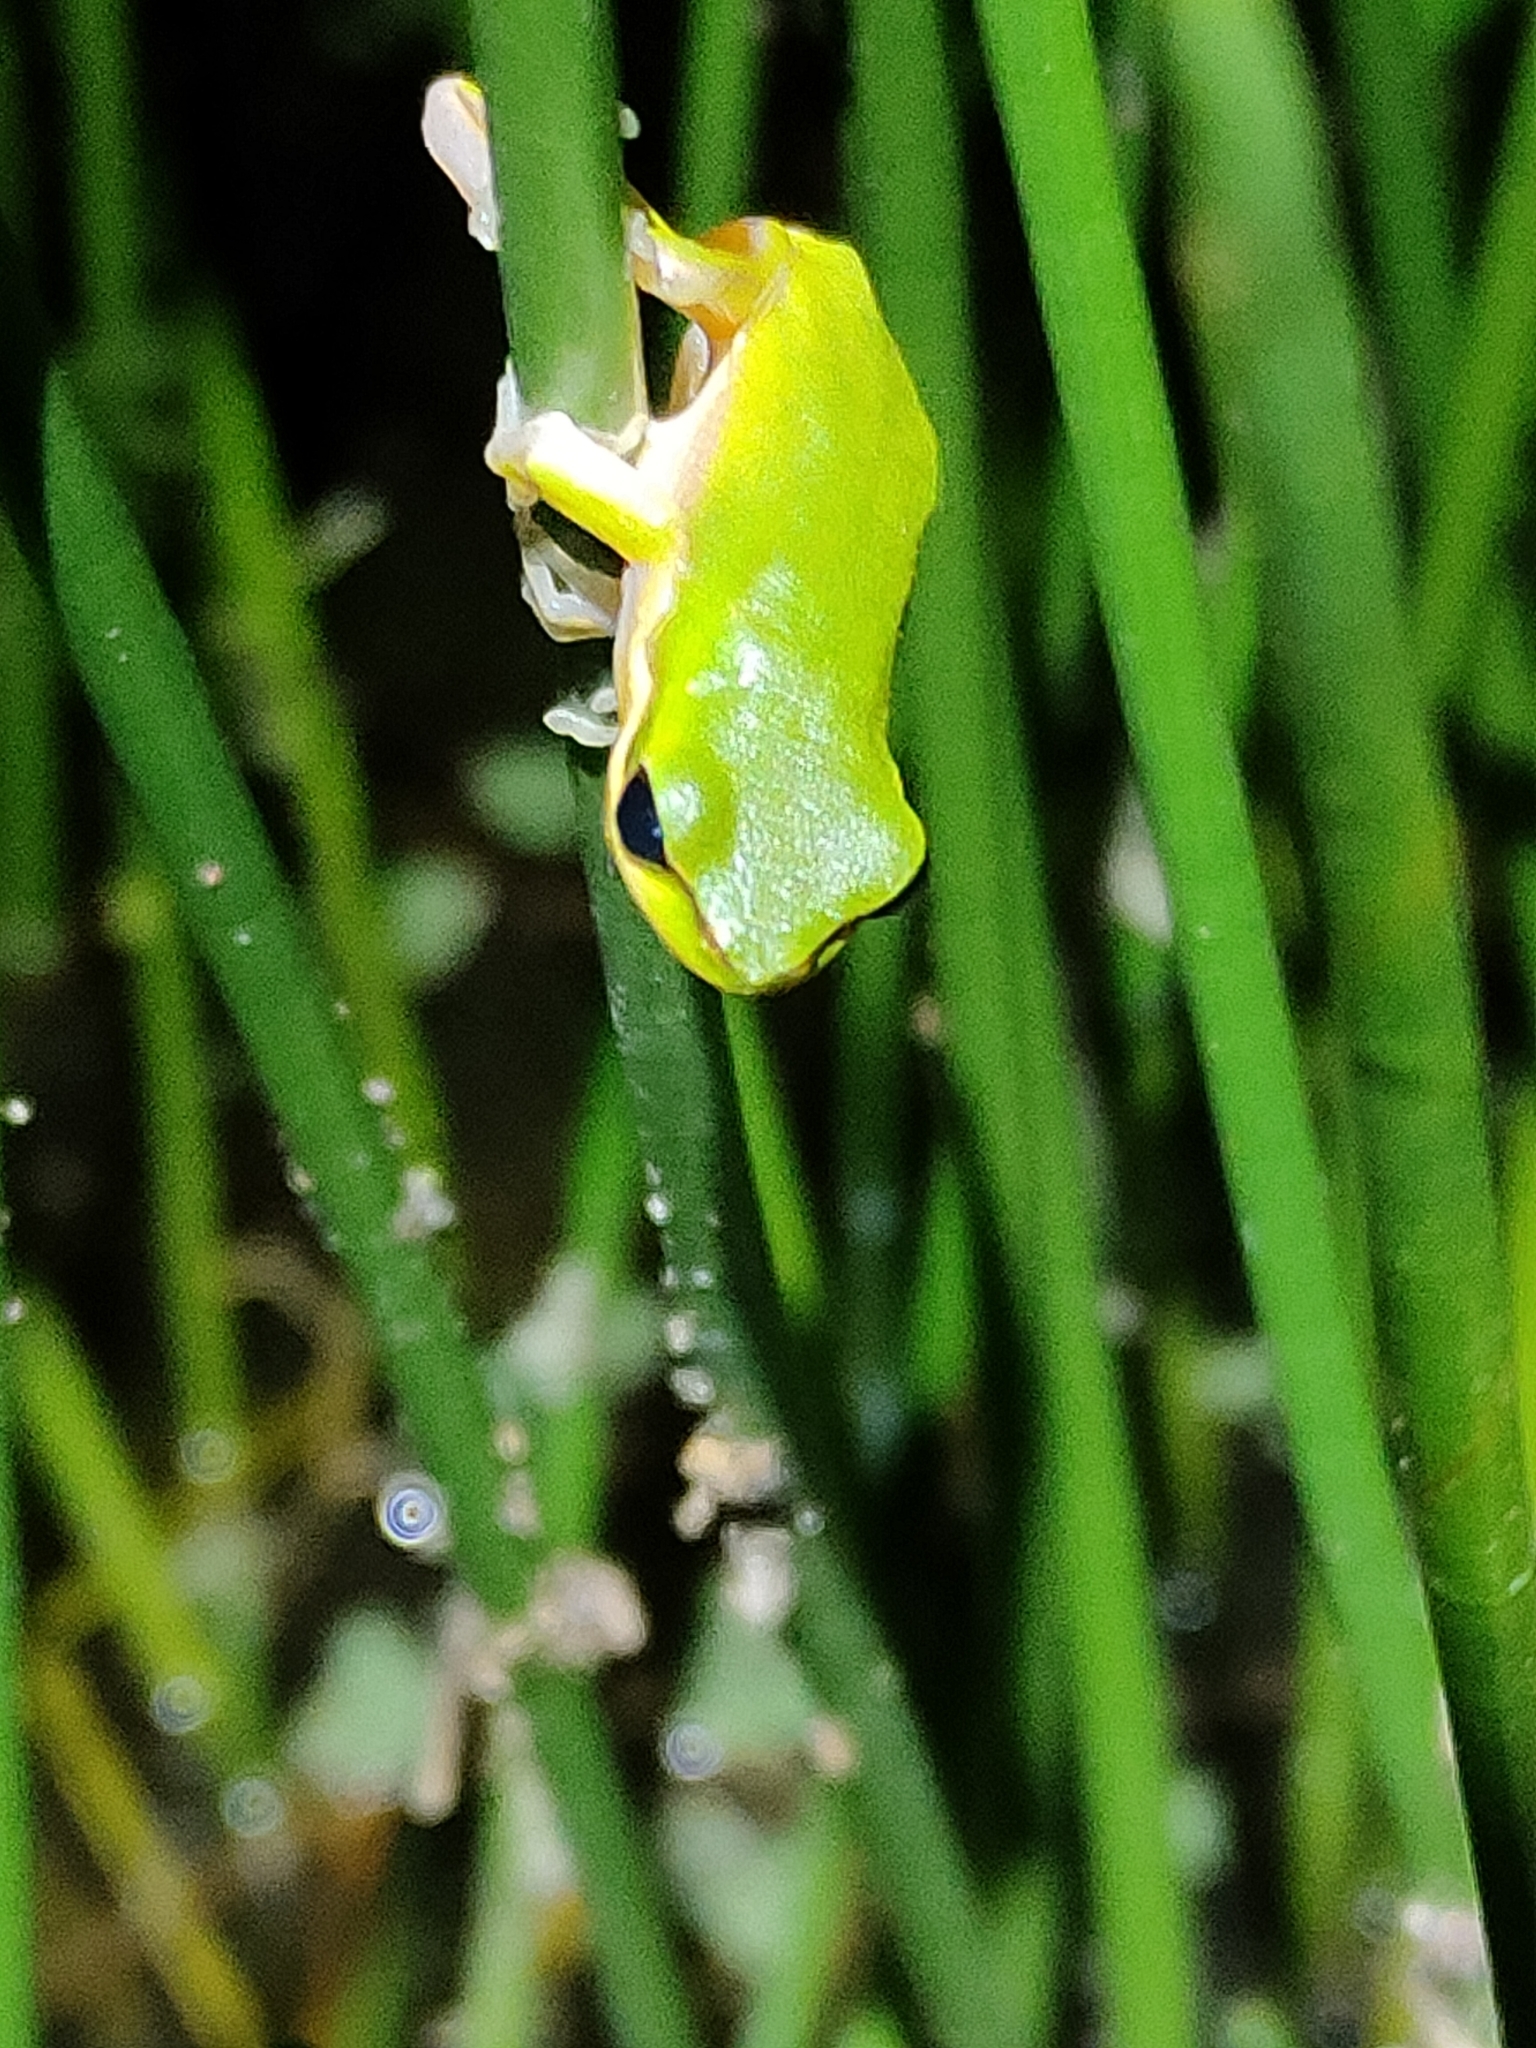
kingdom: Animalia
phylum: Chordata
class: Amphibia
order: Anura
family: Pelodryadidae
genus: Litoria
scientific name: Litoria fallax
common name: Eastern dwarf treefrog
